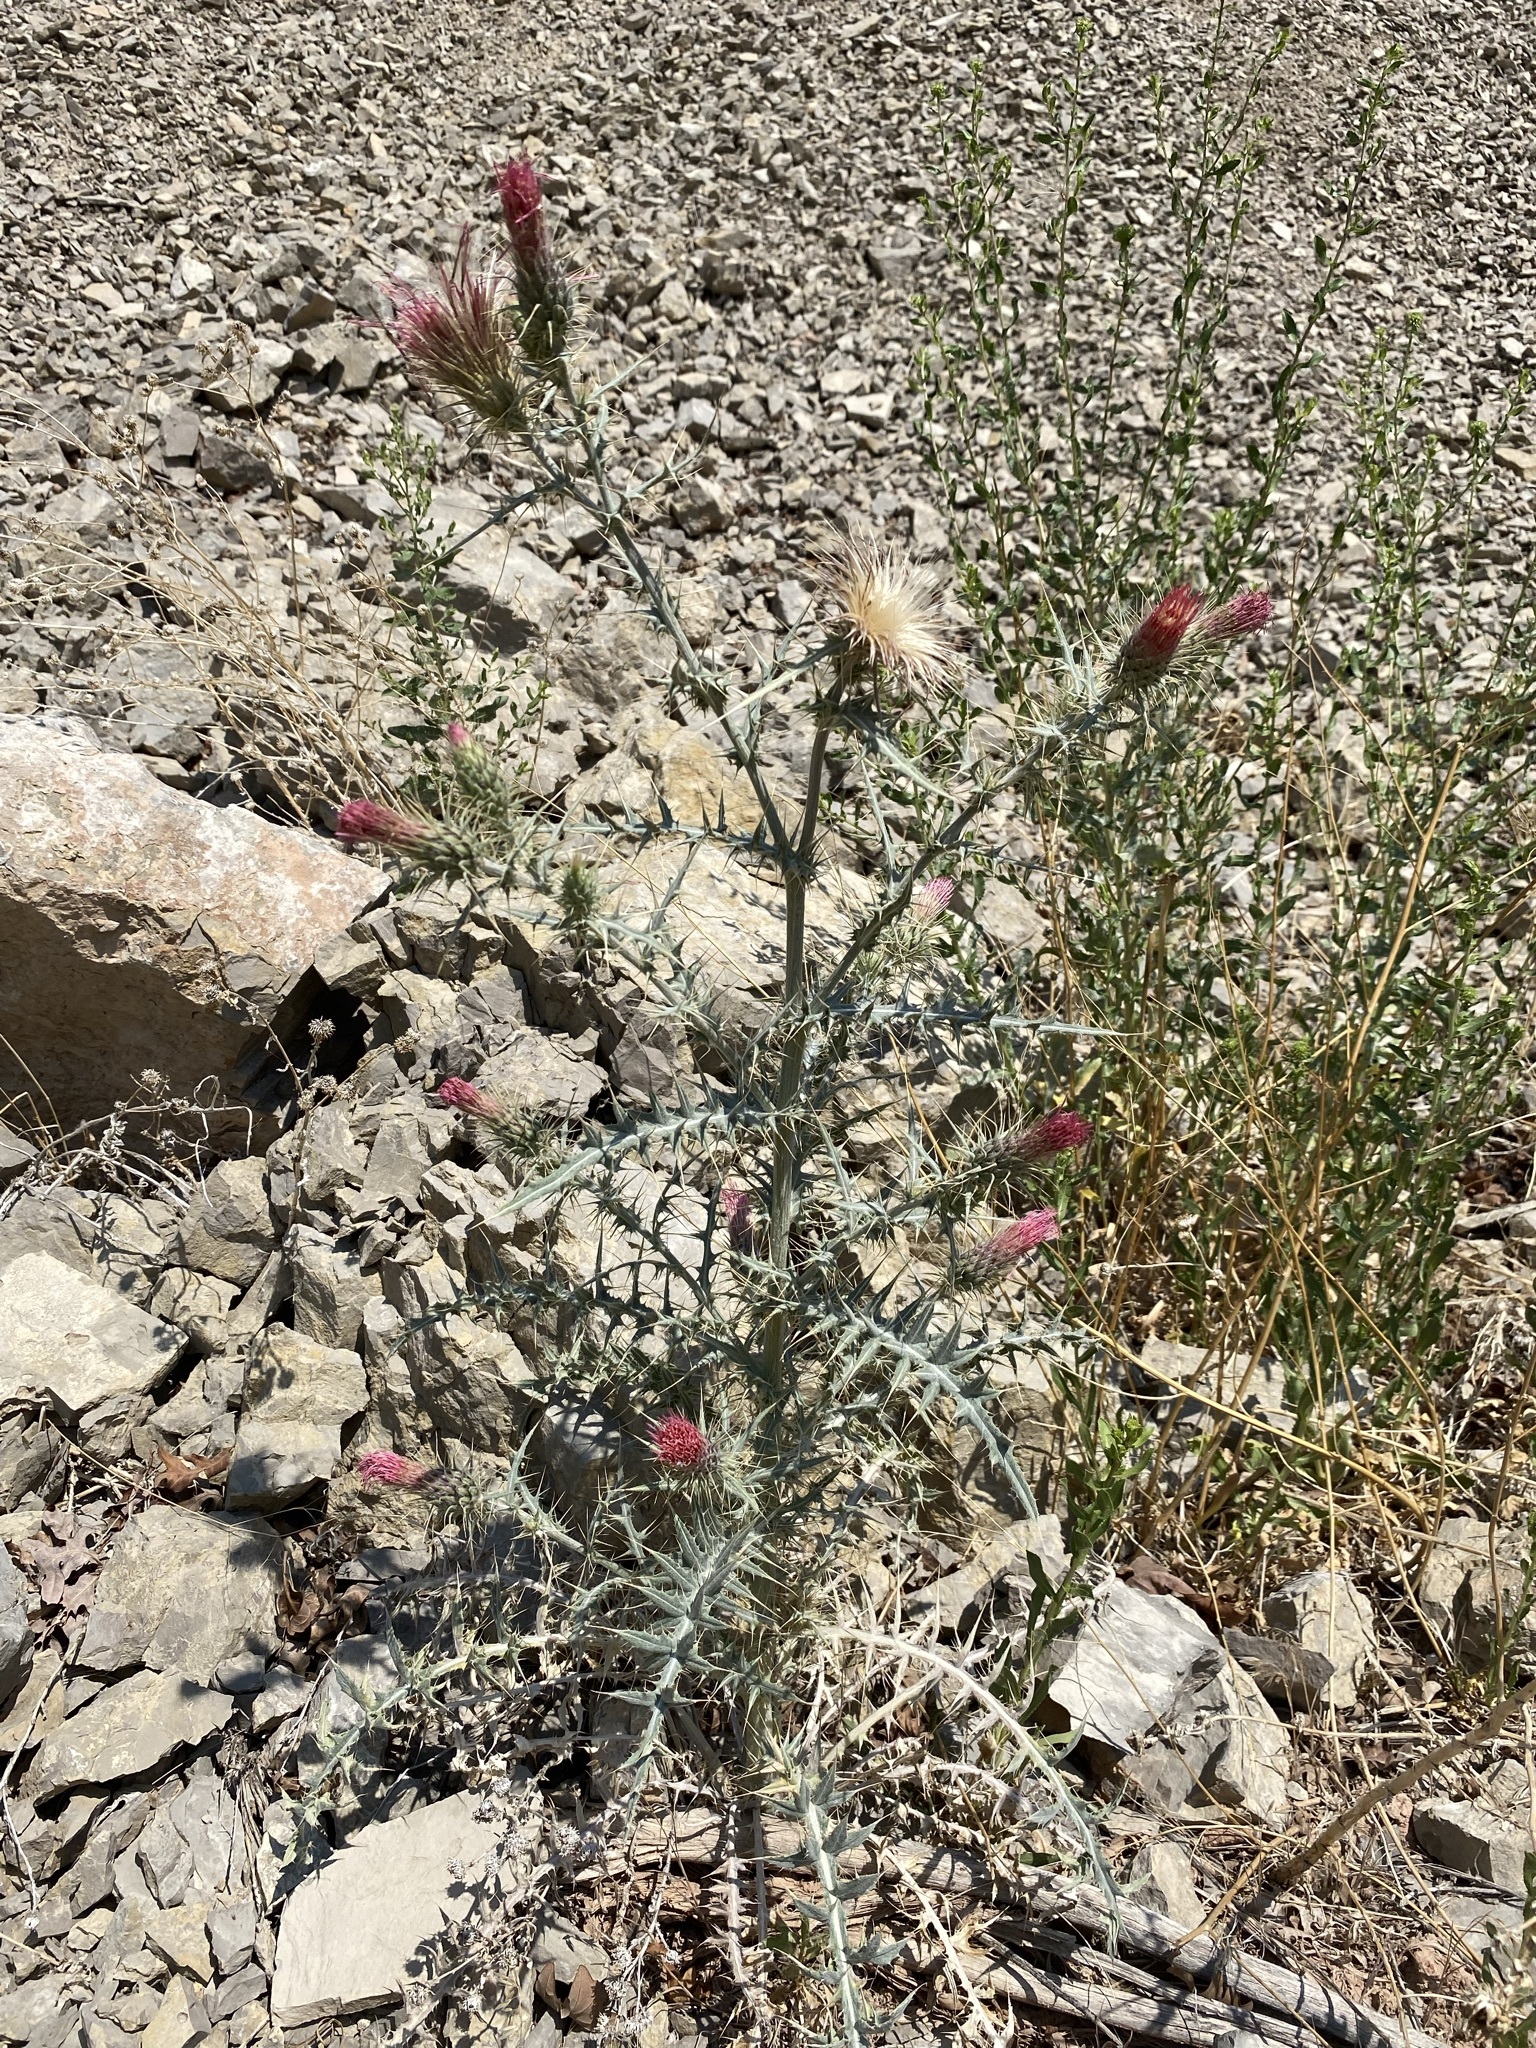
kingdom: Plantae
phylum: Tracheophyta
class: Magnoliopsida
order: Asterales
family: Asteraceae
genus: Cirsium
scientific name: Cirsium arizonicum
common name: Arizona thistle
